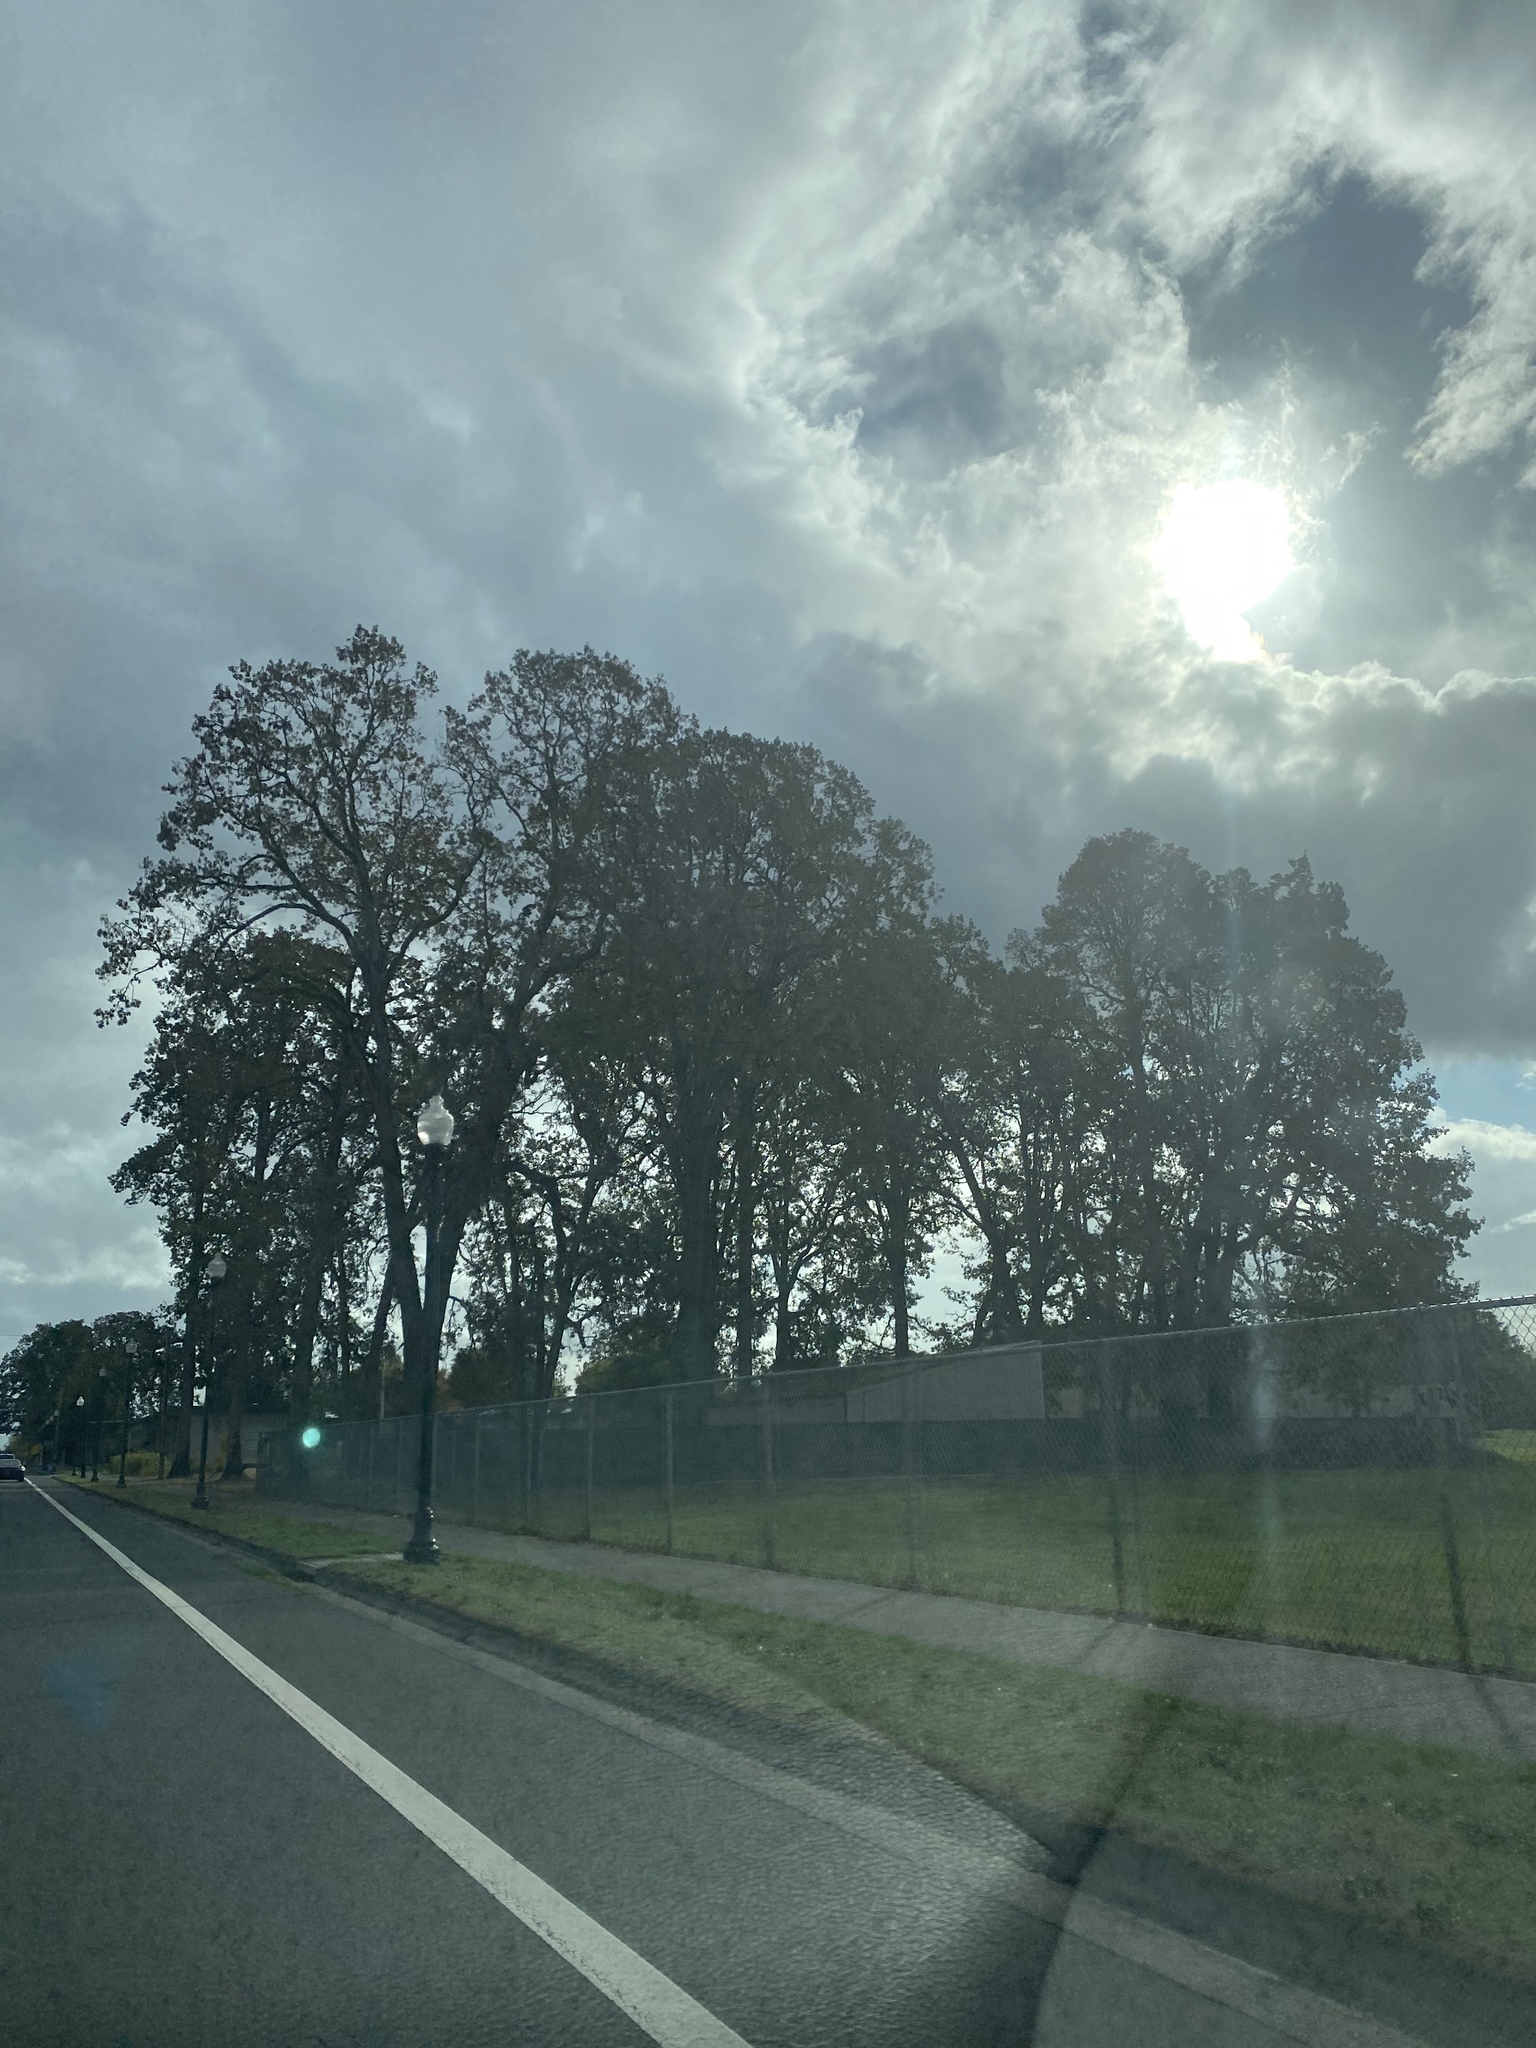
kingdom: Plantae
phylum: Tracheophyta
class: Magnoliopsida
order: Fagales
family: Fagaceae
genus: Quercus
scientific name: Quercus garryana
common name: Garry oak
